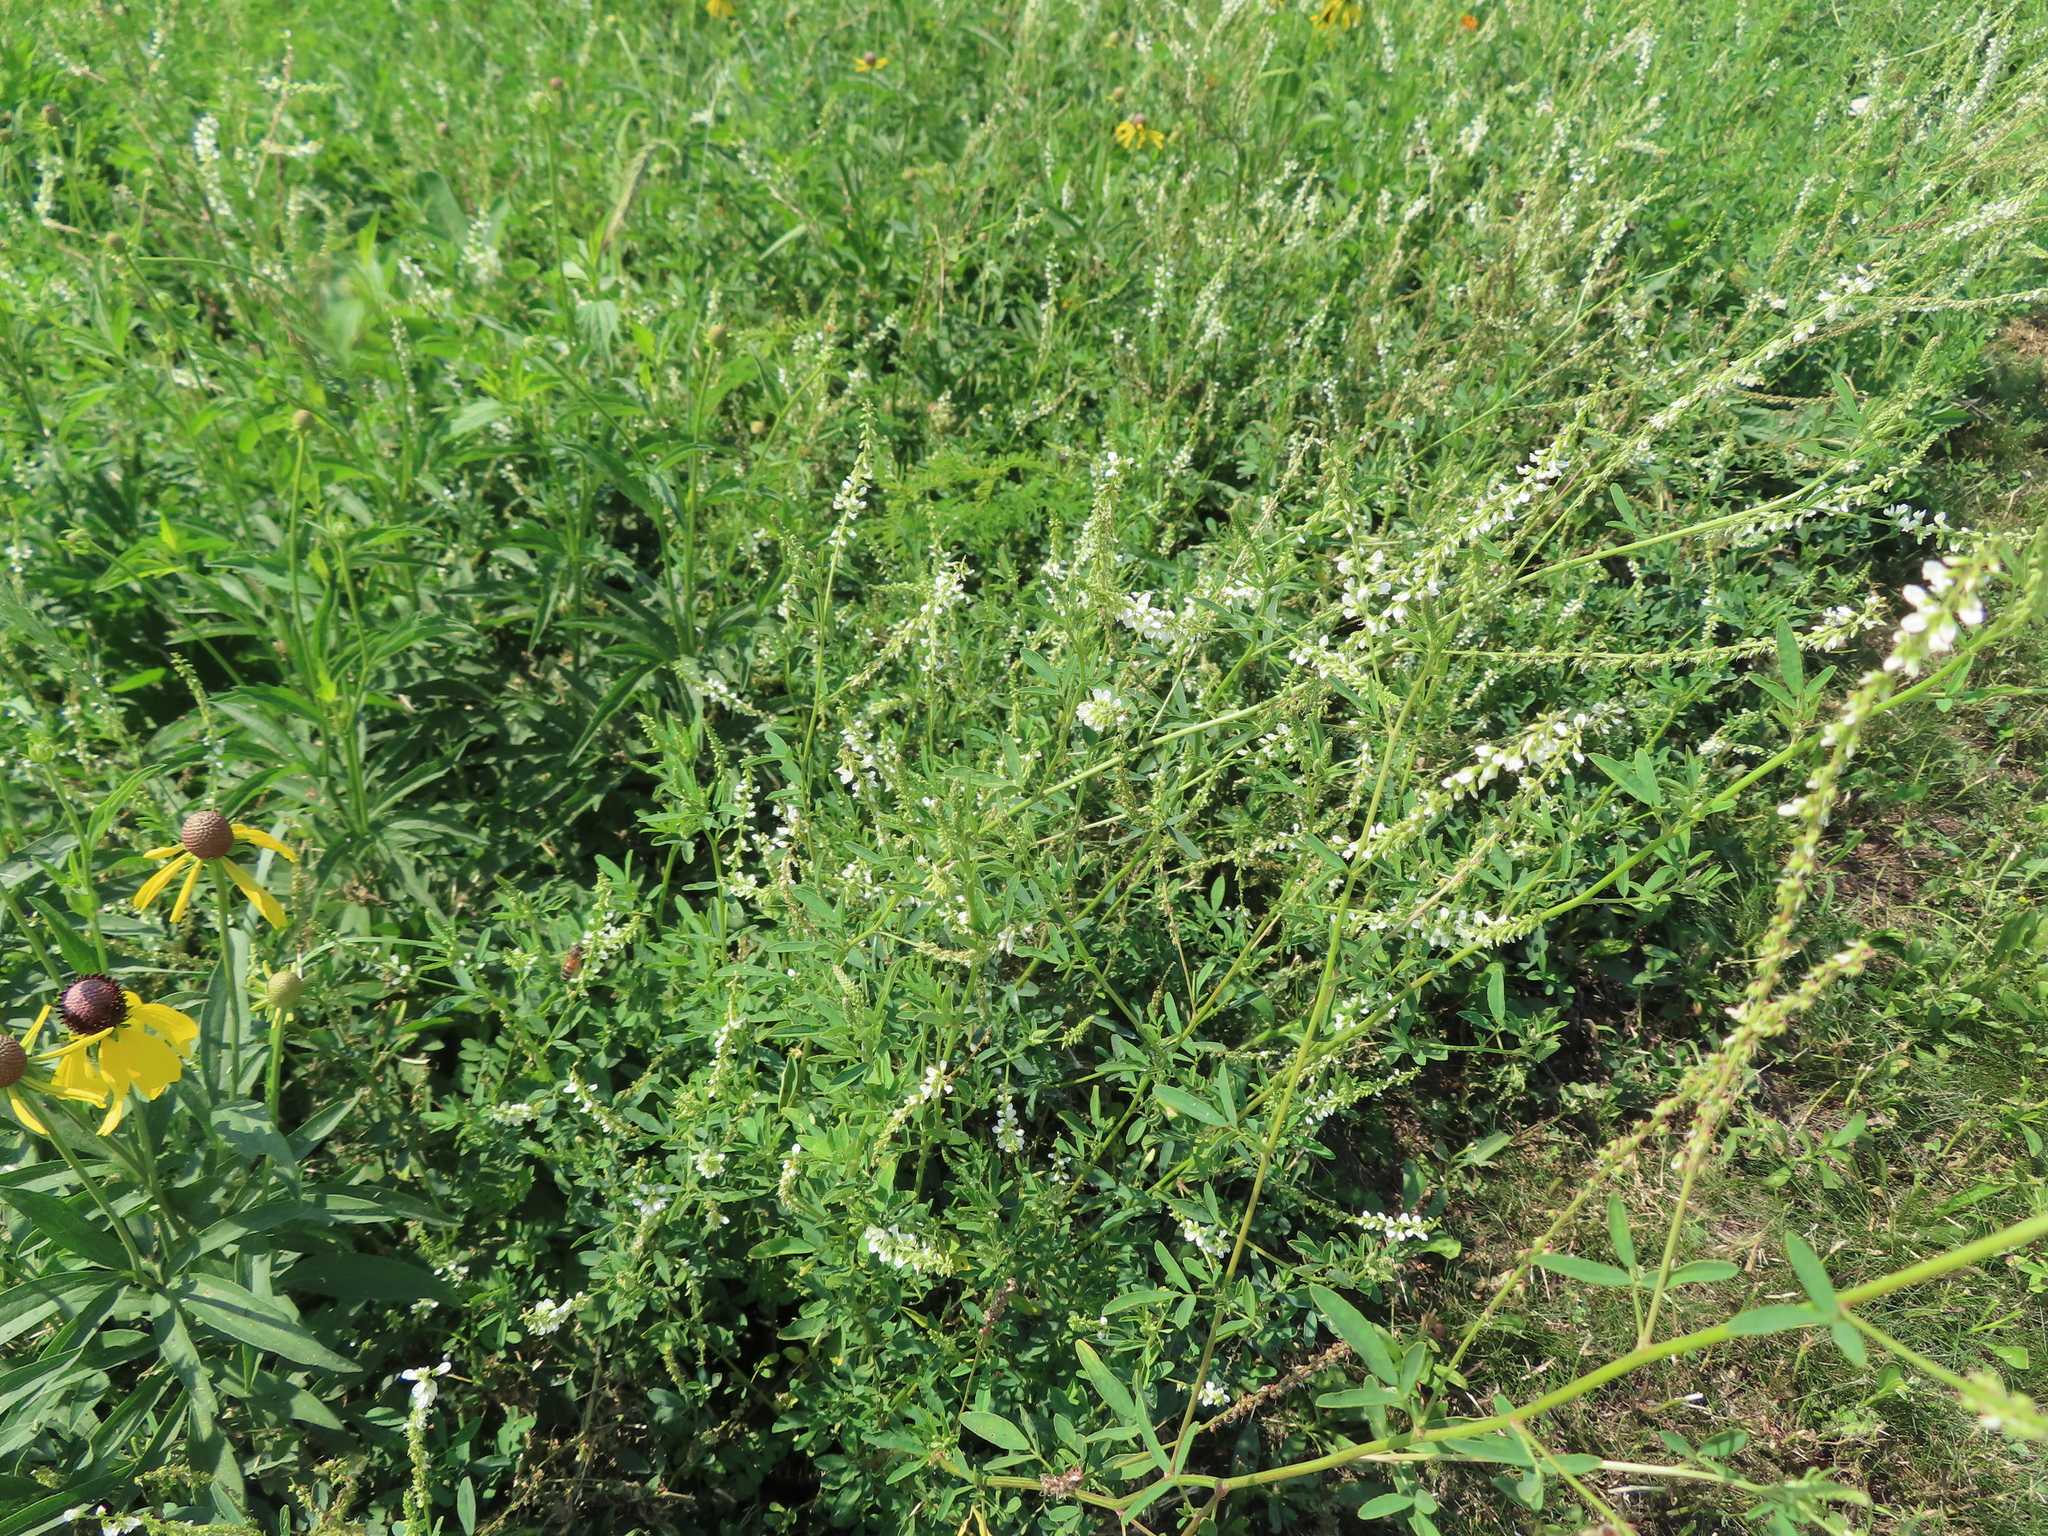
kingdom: Plantae
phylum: Tracheophyta
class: Magnoliopsida
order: Fabales
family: Fabaceae
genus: Melilotus
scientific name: Melilotus albus
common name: White melilot
